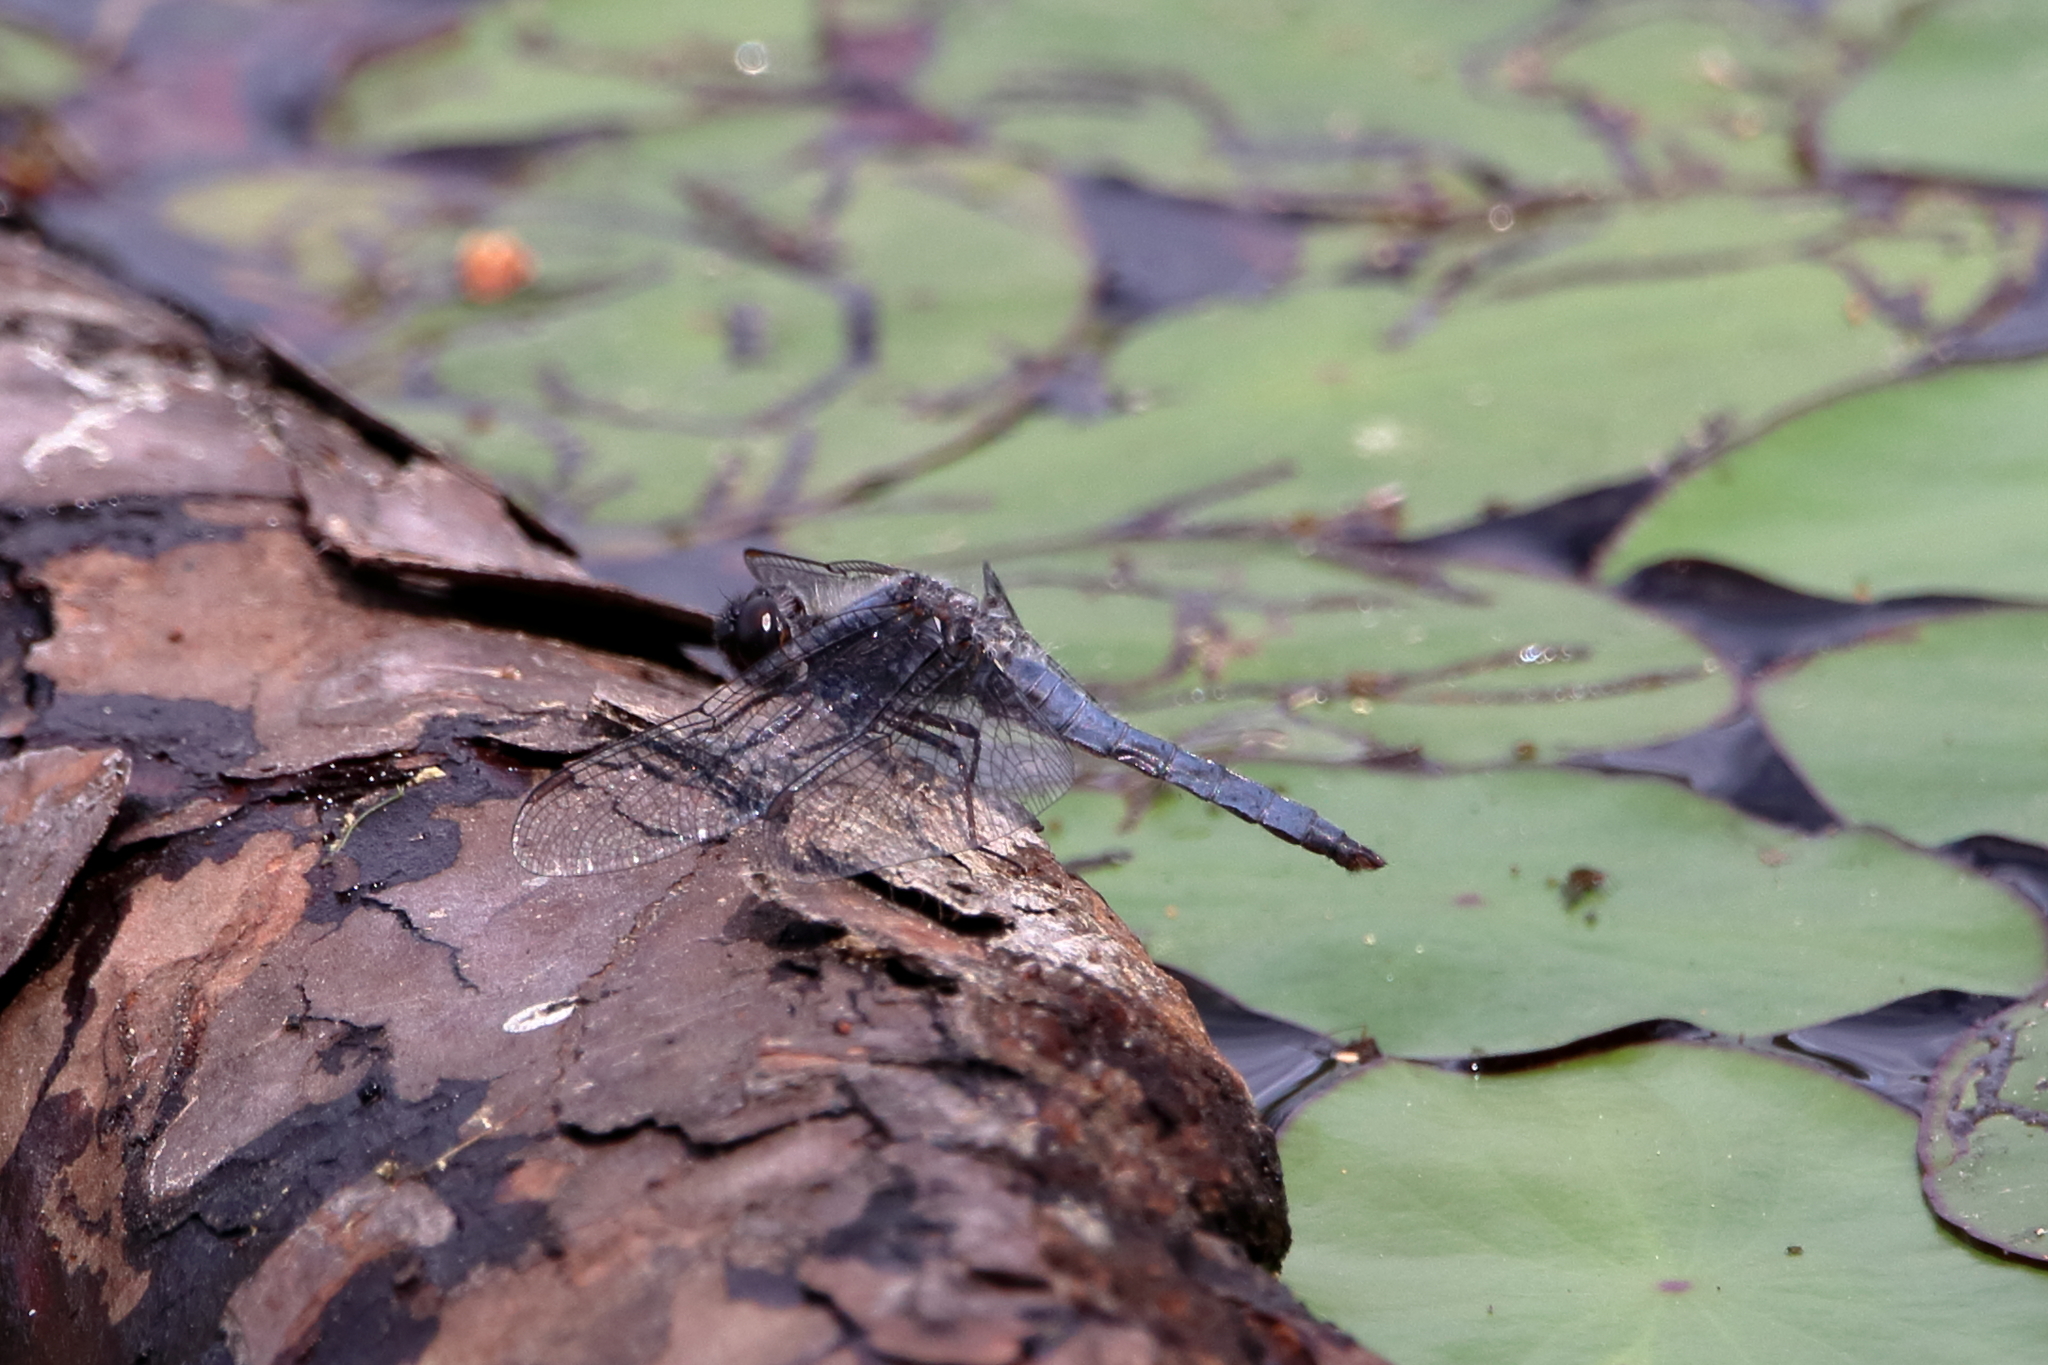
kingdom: Animalia
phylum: Arthropoda
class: Insecta
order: Odonata
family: Libellulidae
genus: Ladona
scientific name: Ladona deplanata
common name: Blue corporal
